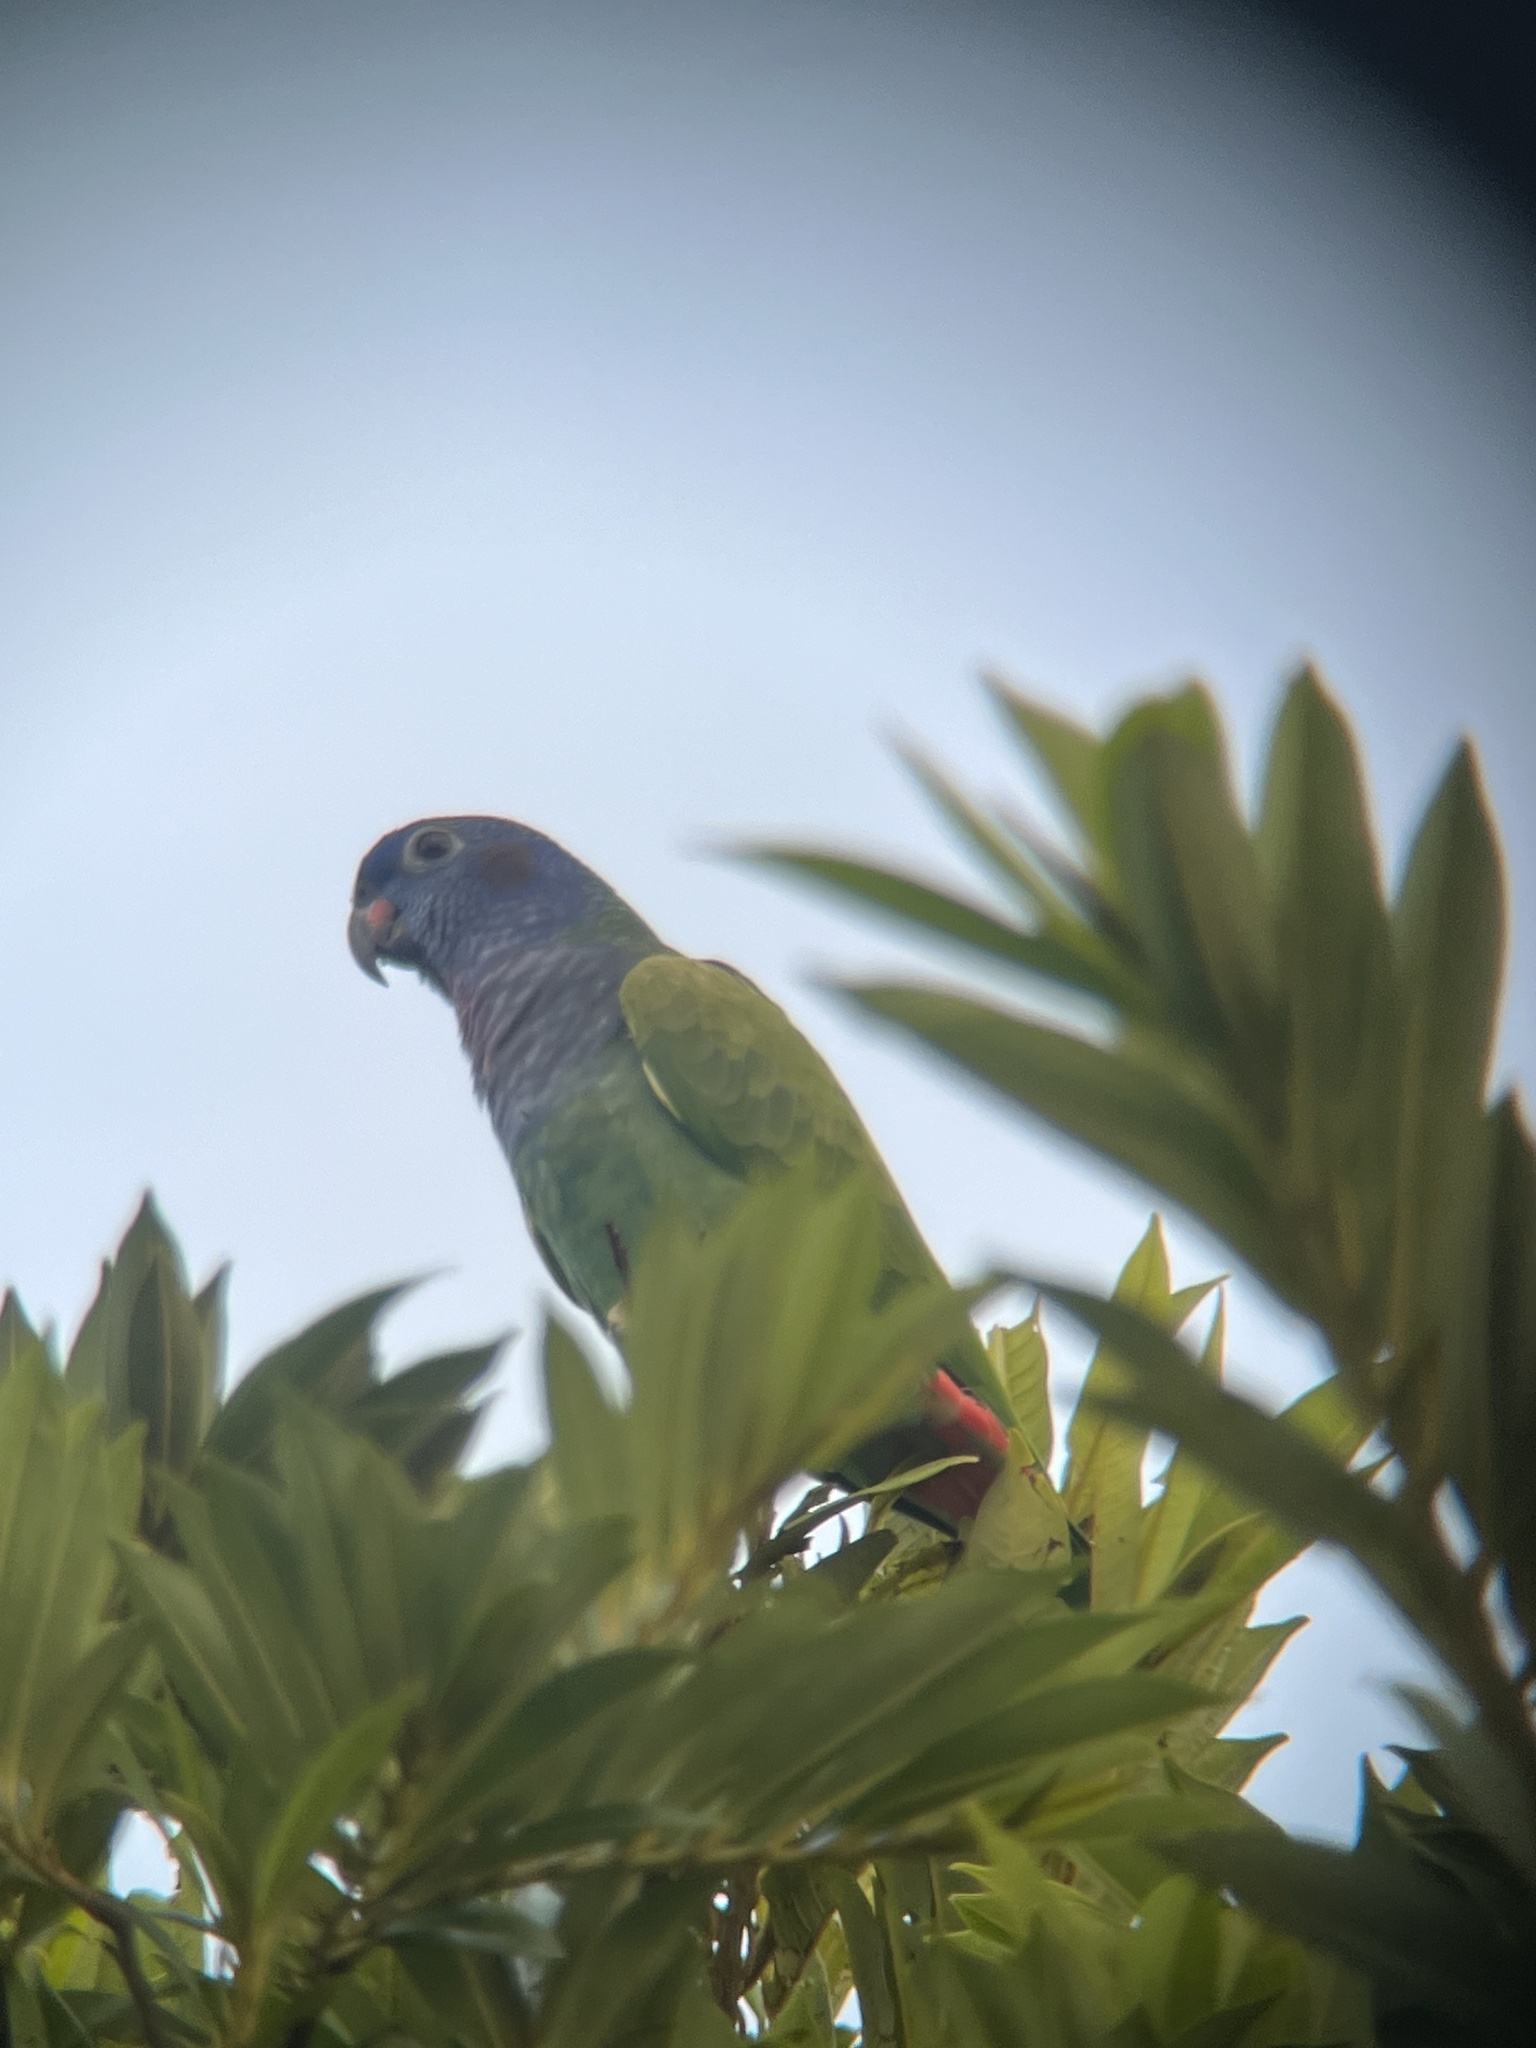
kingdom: Animalia
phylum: Chordata
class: Aves
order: Psittaciformes
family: Psittacidae
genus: Pionus
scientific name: Pionus menstruus
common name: Blue-headed parrot
